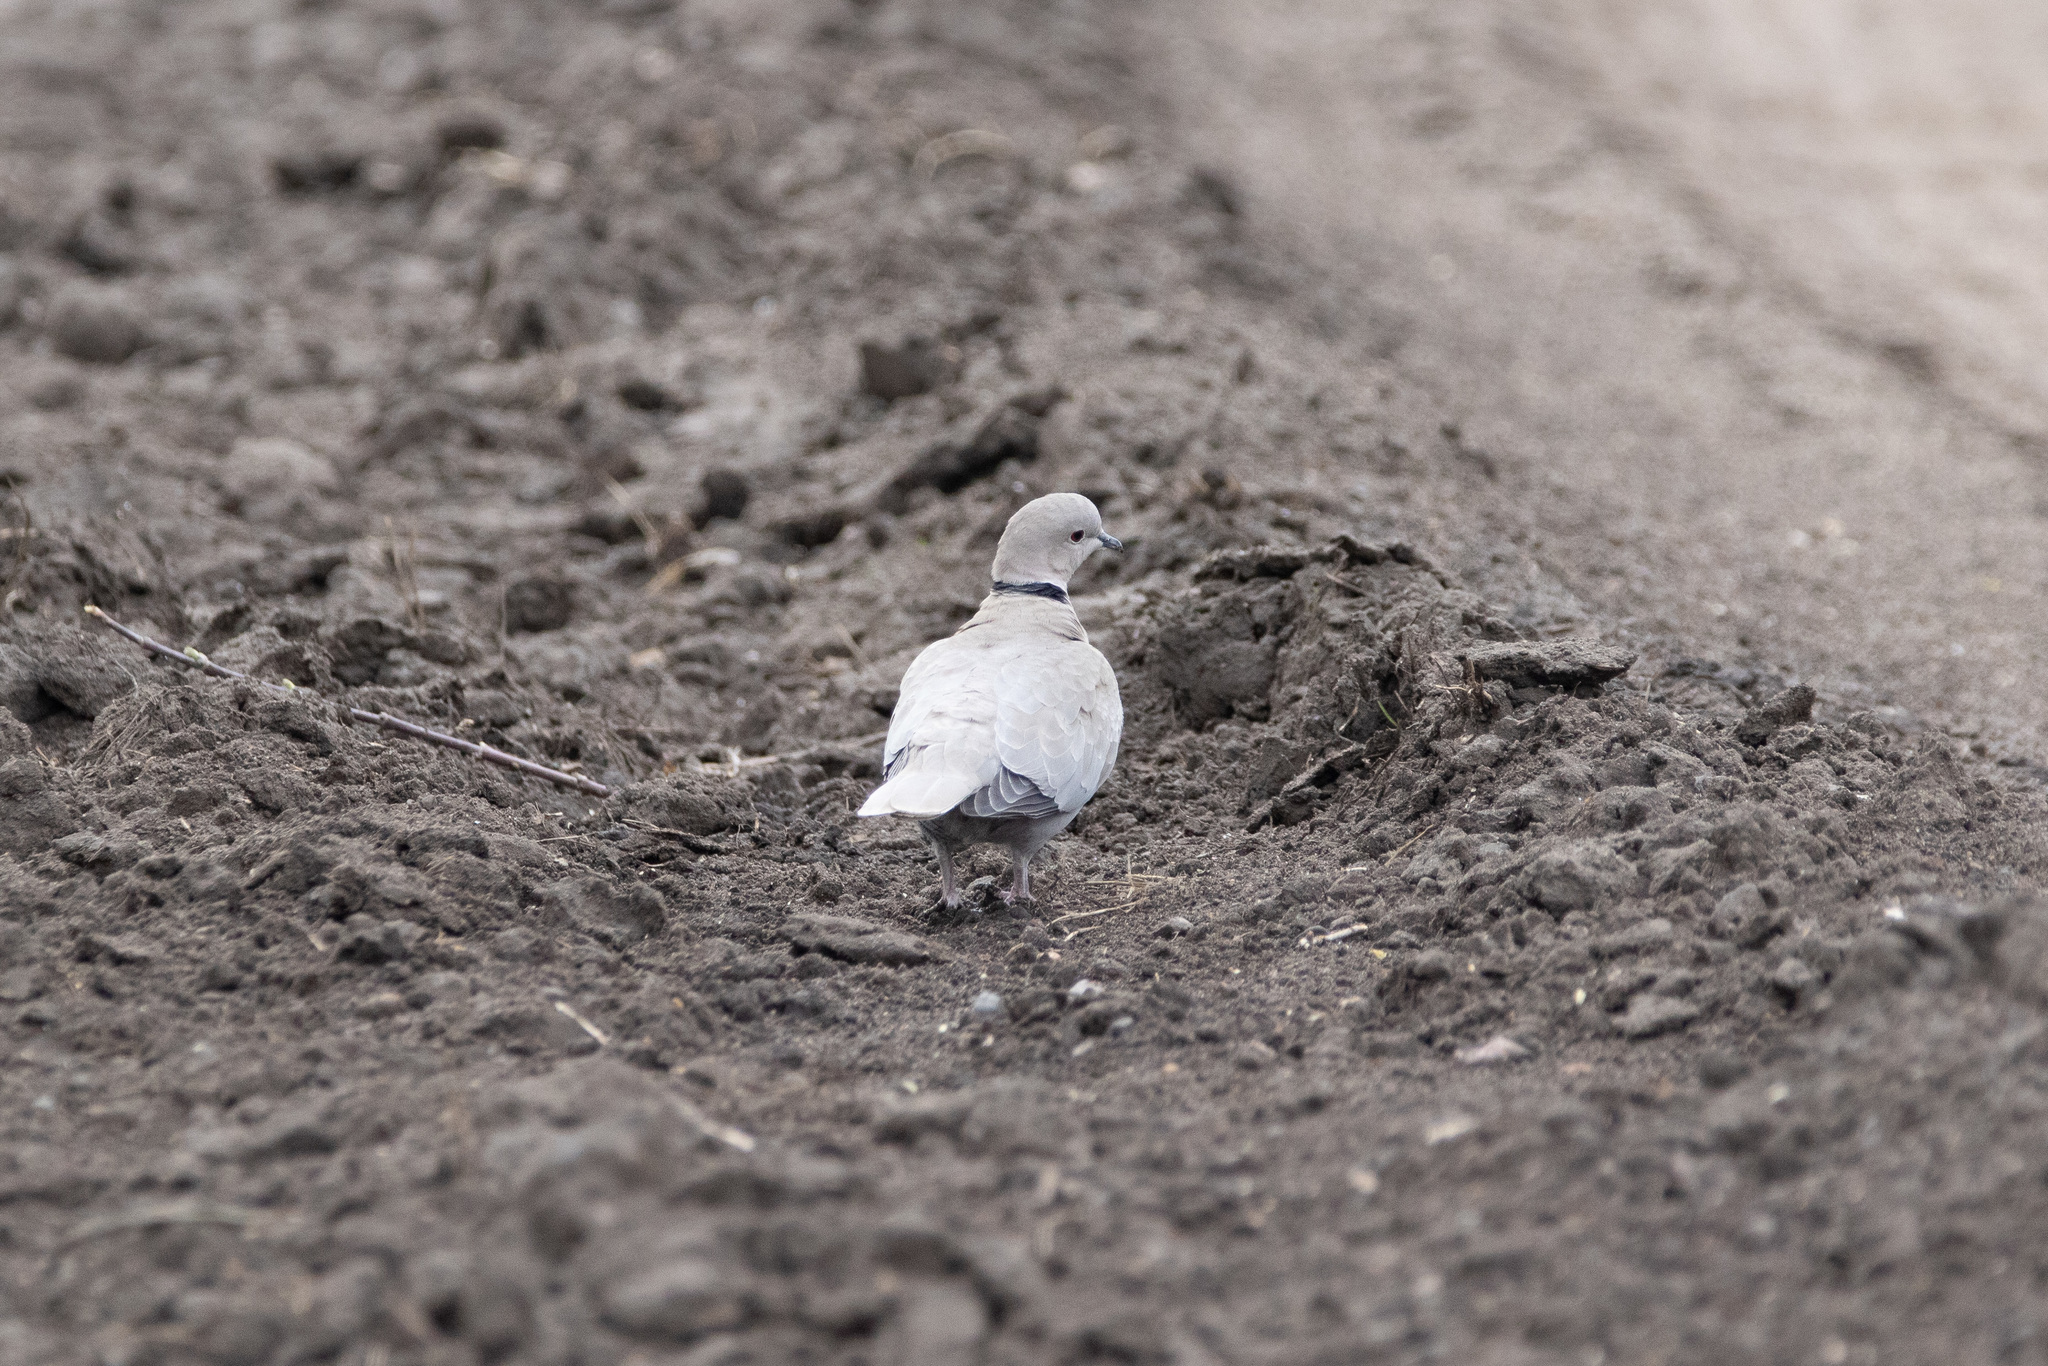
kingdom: Animalia
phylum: Chordata
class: Aves
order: Columbiformes
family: Columbidae
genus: Streptopelia
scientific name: Streptopelia decaocto
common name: Eurasian collared dove
